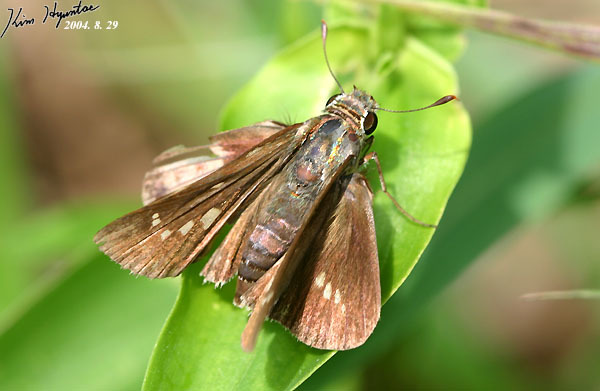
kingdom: Animalia
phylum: Arthropoda
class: Insecta
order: Lepidoptera
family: Hesperiidae
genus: Parnara
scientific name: Parnara guttatus
